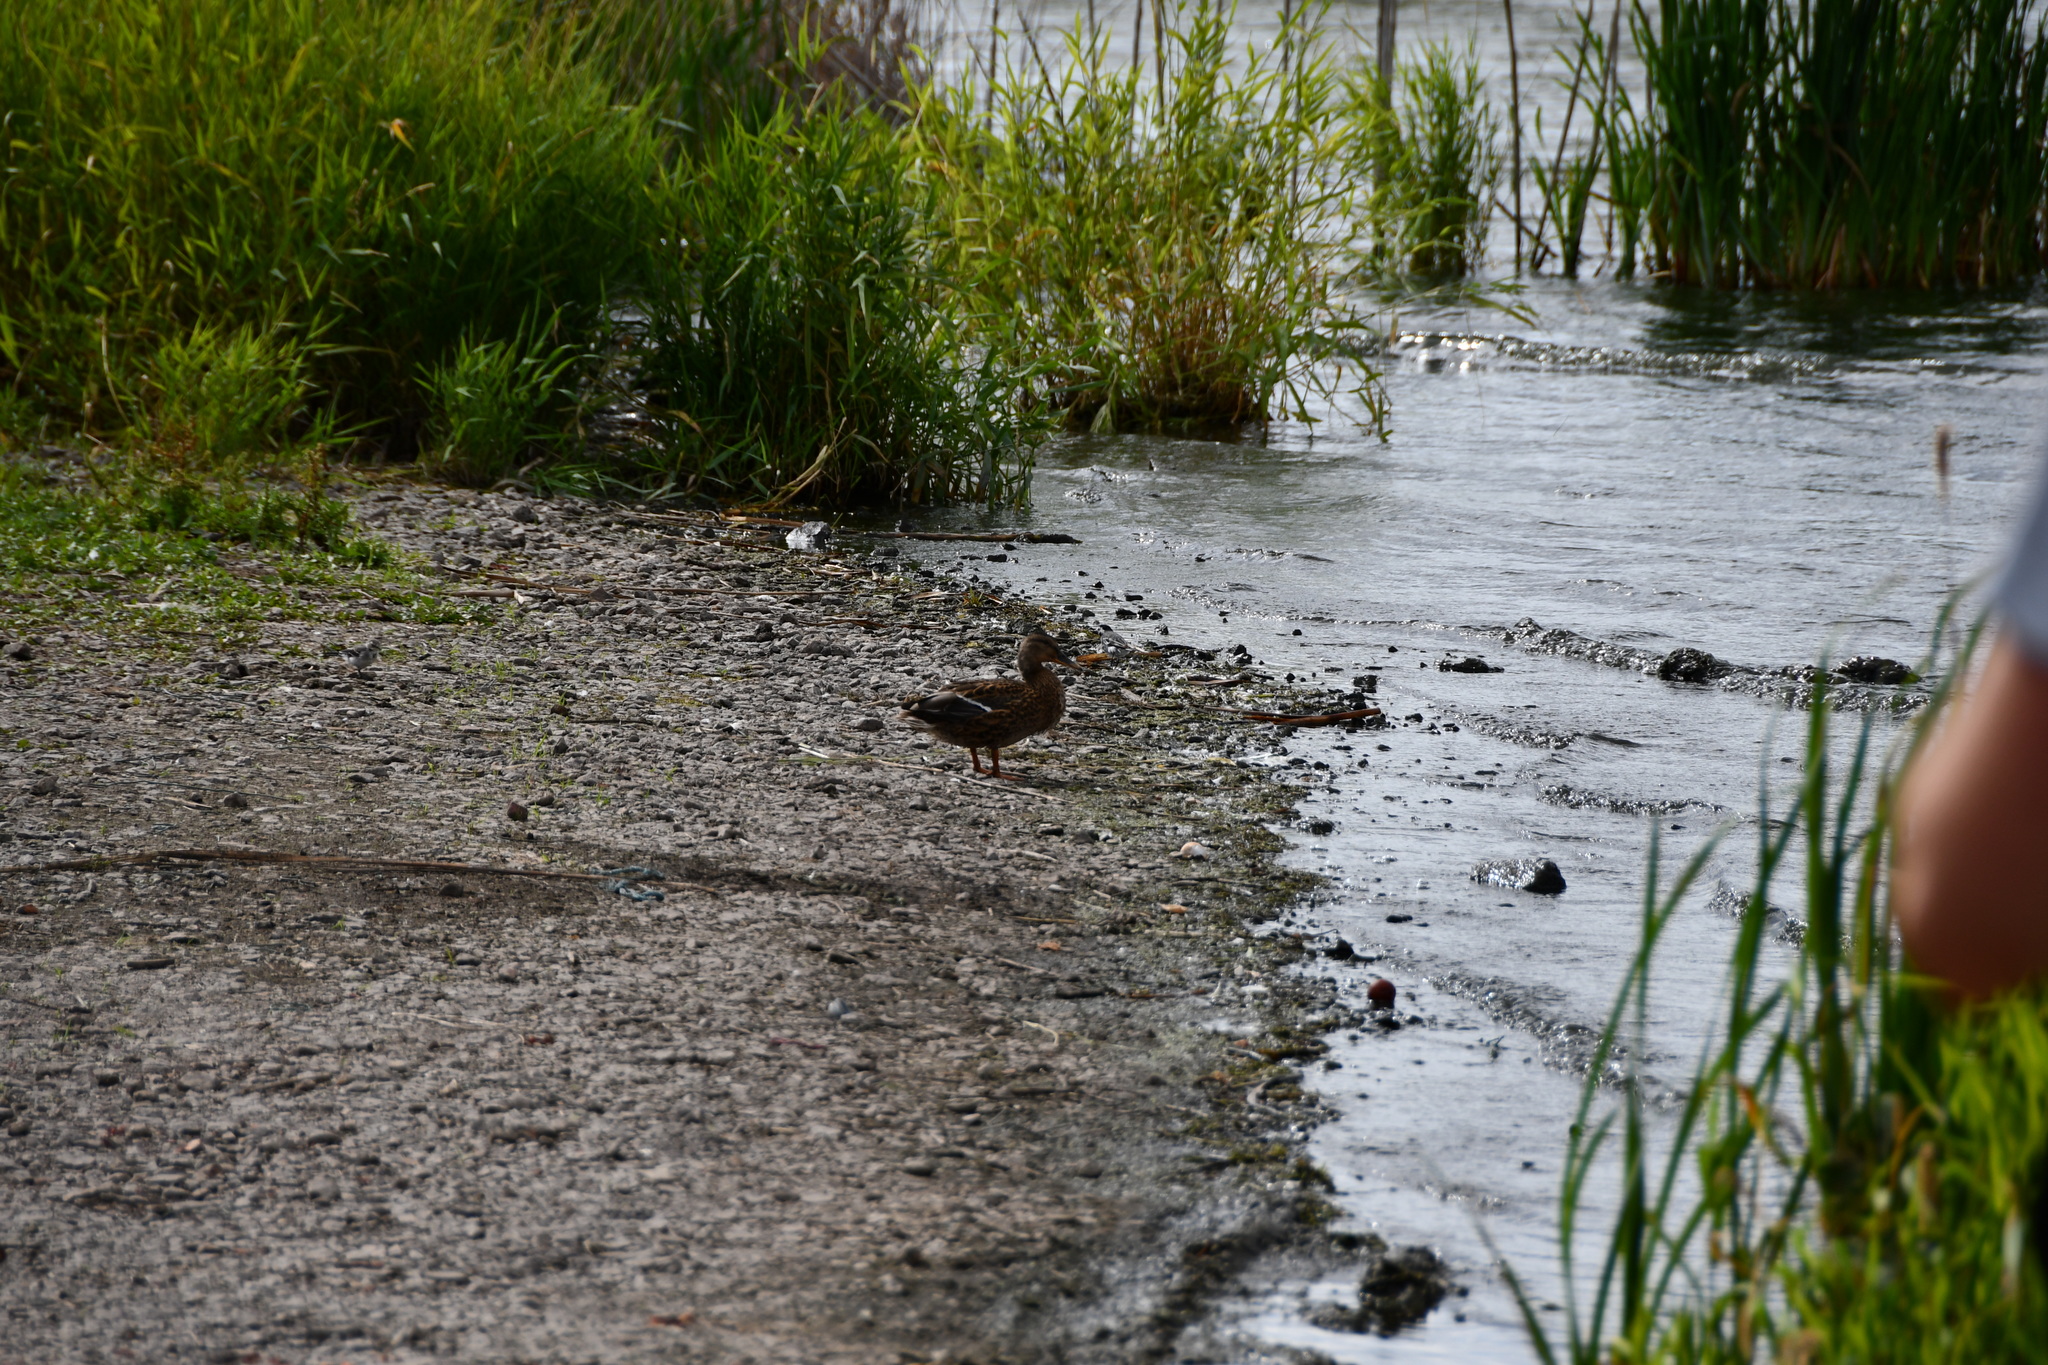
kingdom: Animalia
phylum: Chordata
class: Aves
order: Anseriformes
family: Anatidae
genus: Anas
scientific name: Anas platyrhynchos
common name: Mallard
